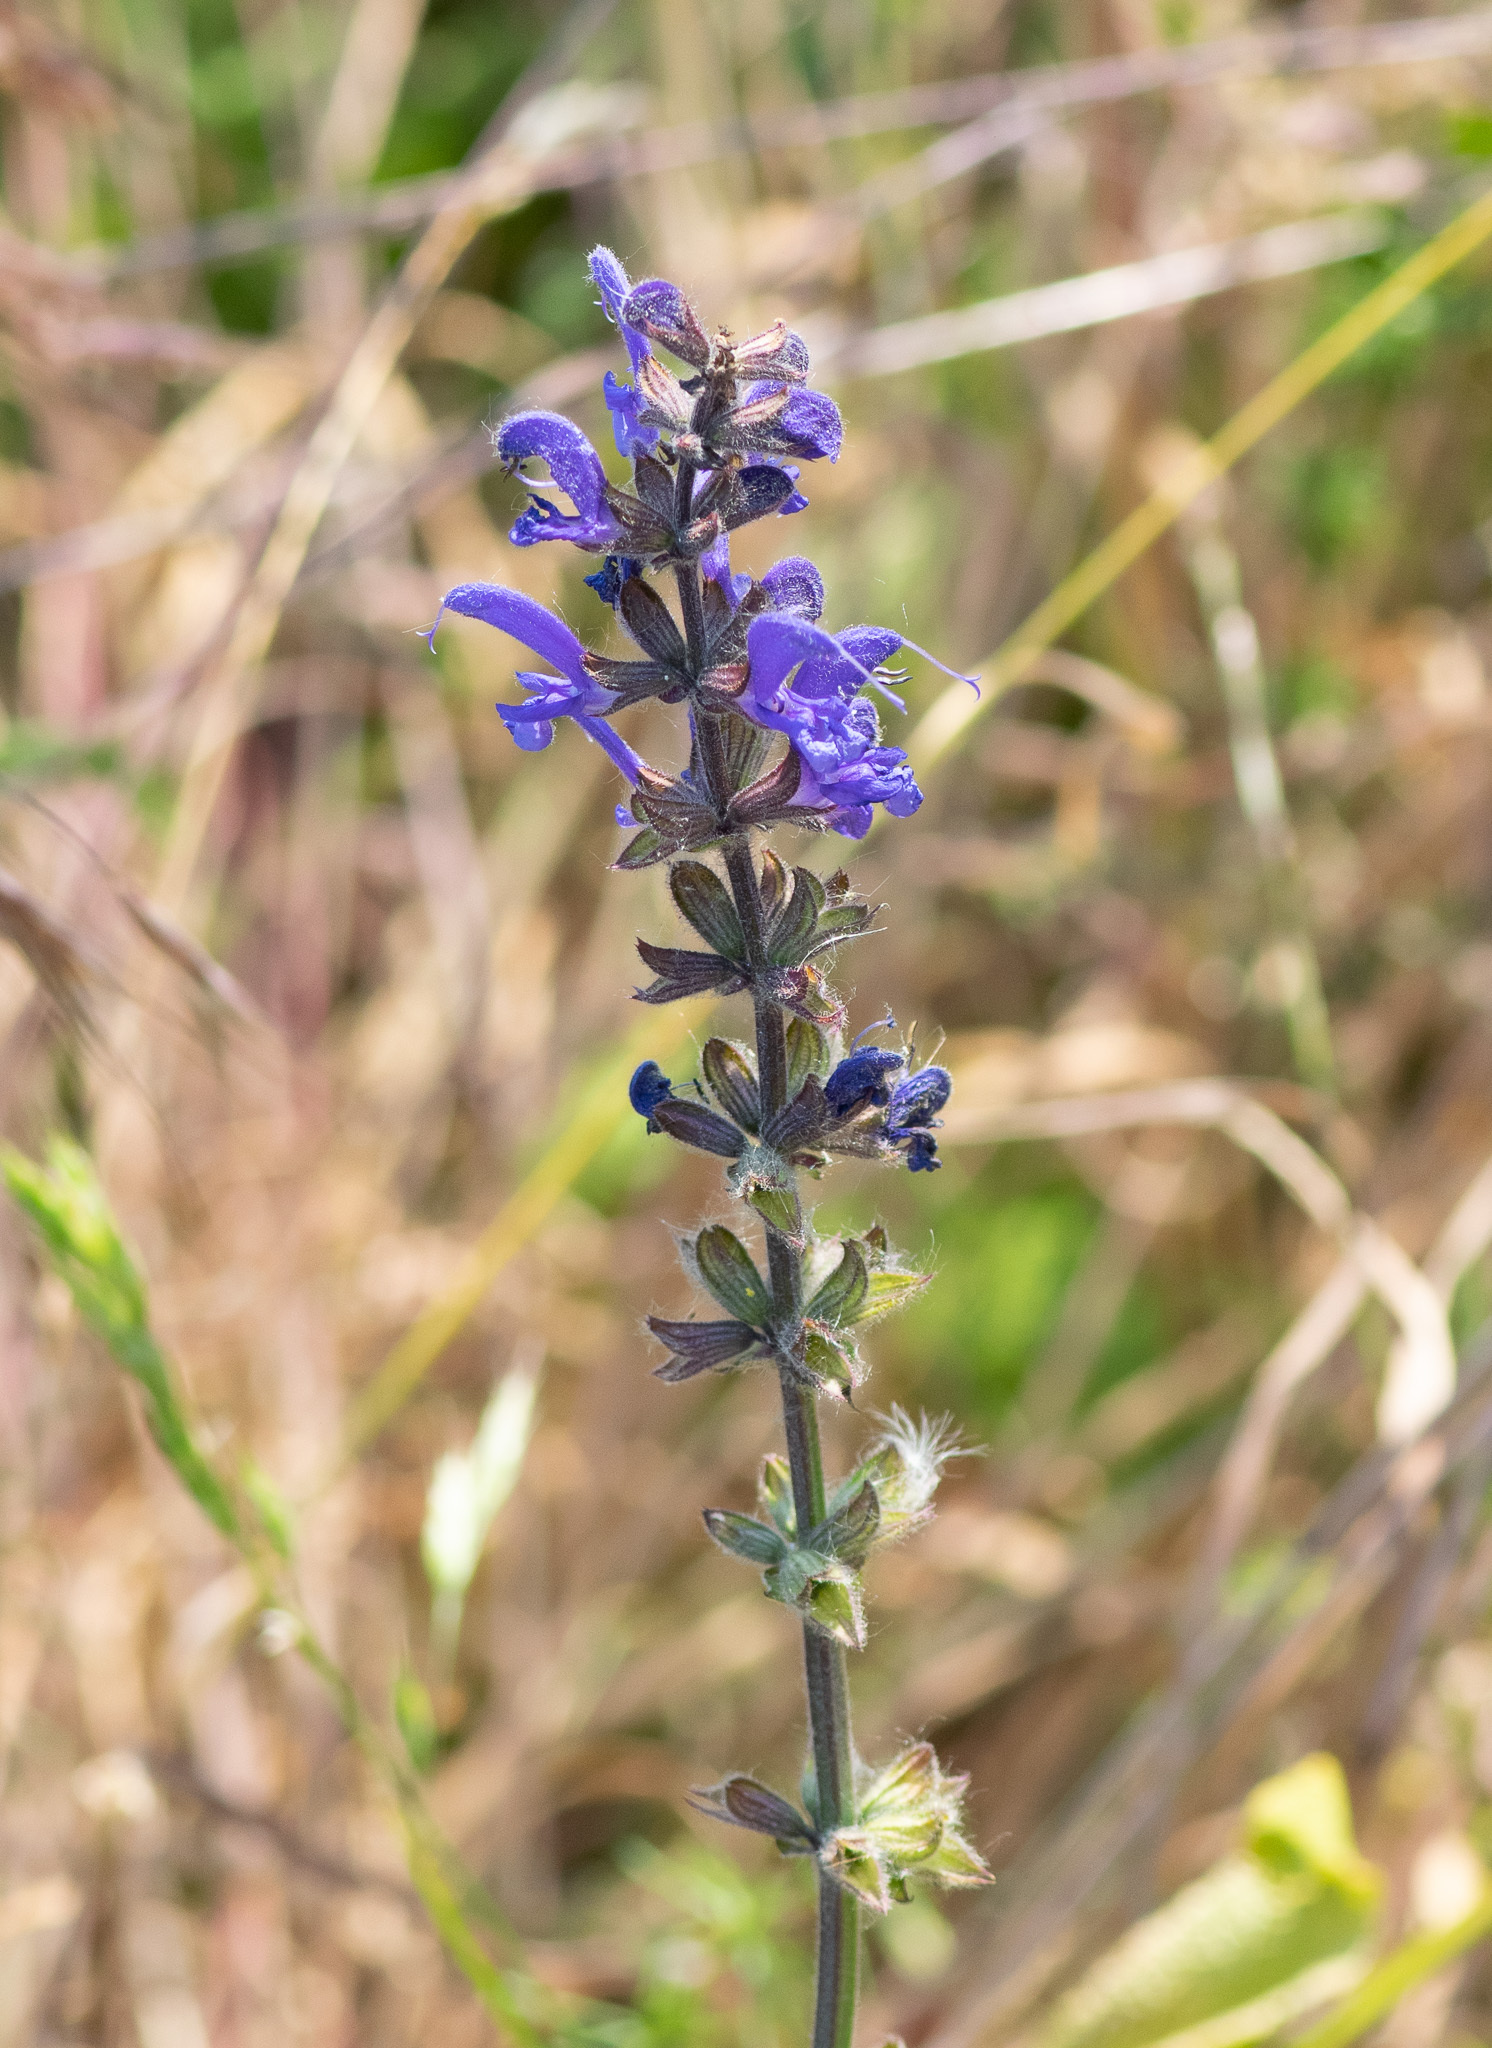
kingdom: Plantae
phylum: Tracheophyta
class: Magnoliopsida
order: Lamiales
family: Lamiaceae
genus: Salvia
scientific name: Salvia pratensis
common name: Meadow sage
